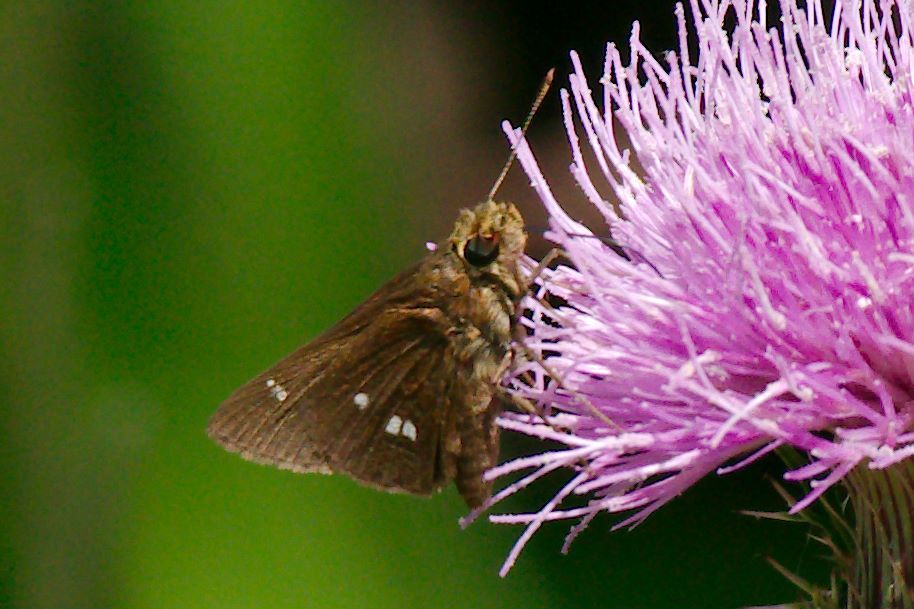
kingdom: Animalia
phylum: Arthropoda
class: Insecta
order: Lepidoptera
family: Hesperiidae
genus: Oligoria
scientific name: Oligoria maculata
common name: Twin-spot skipper
